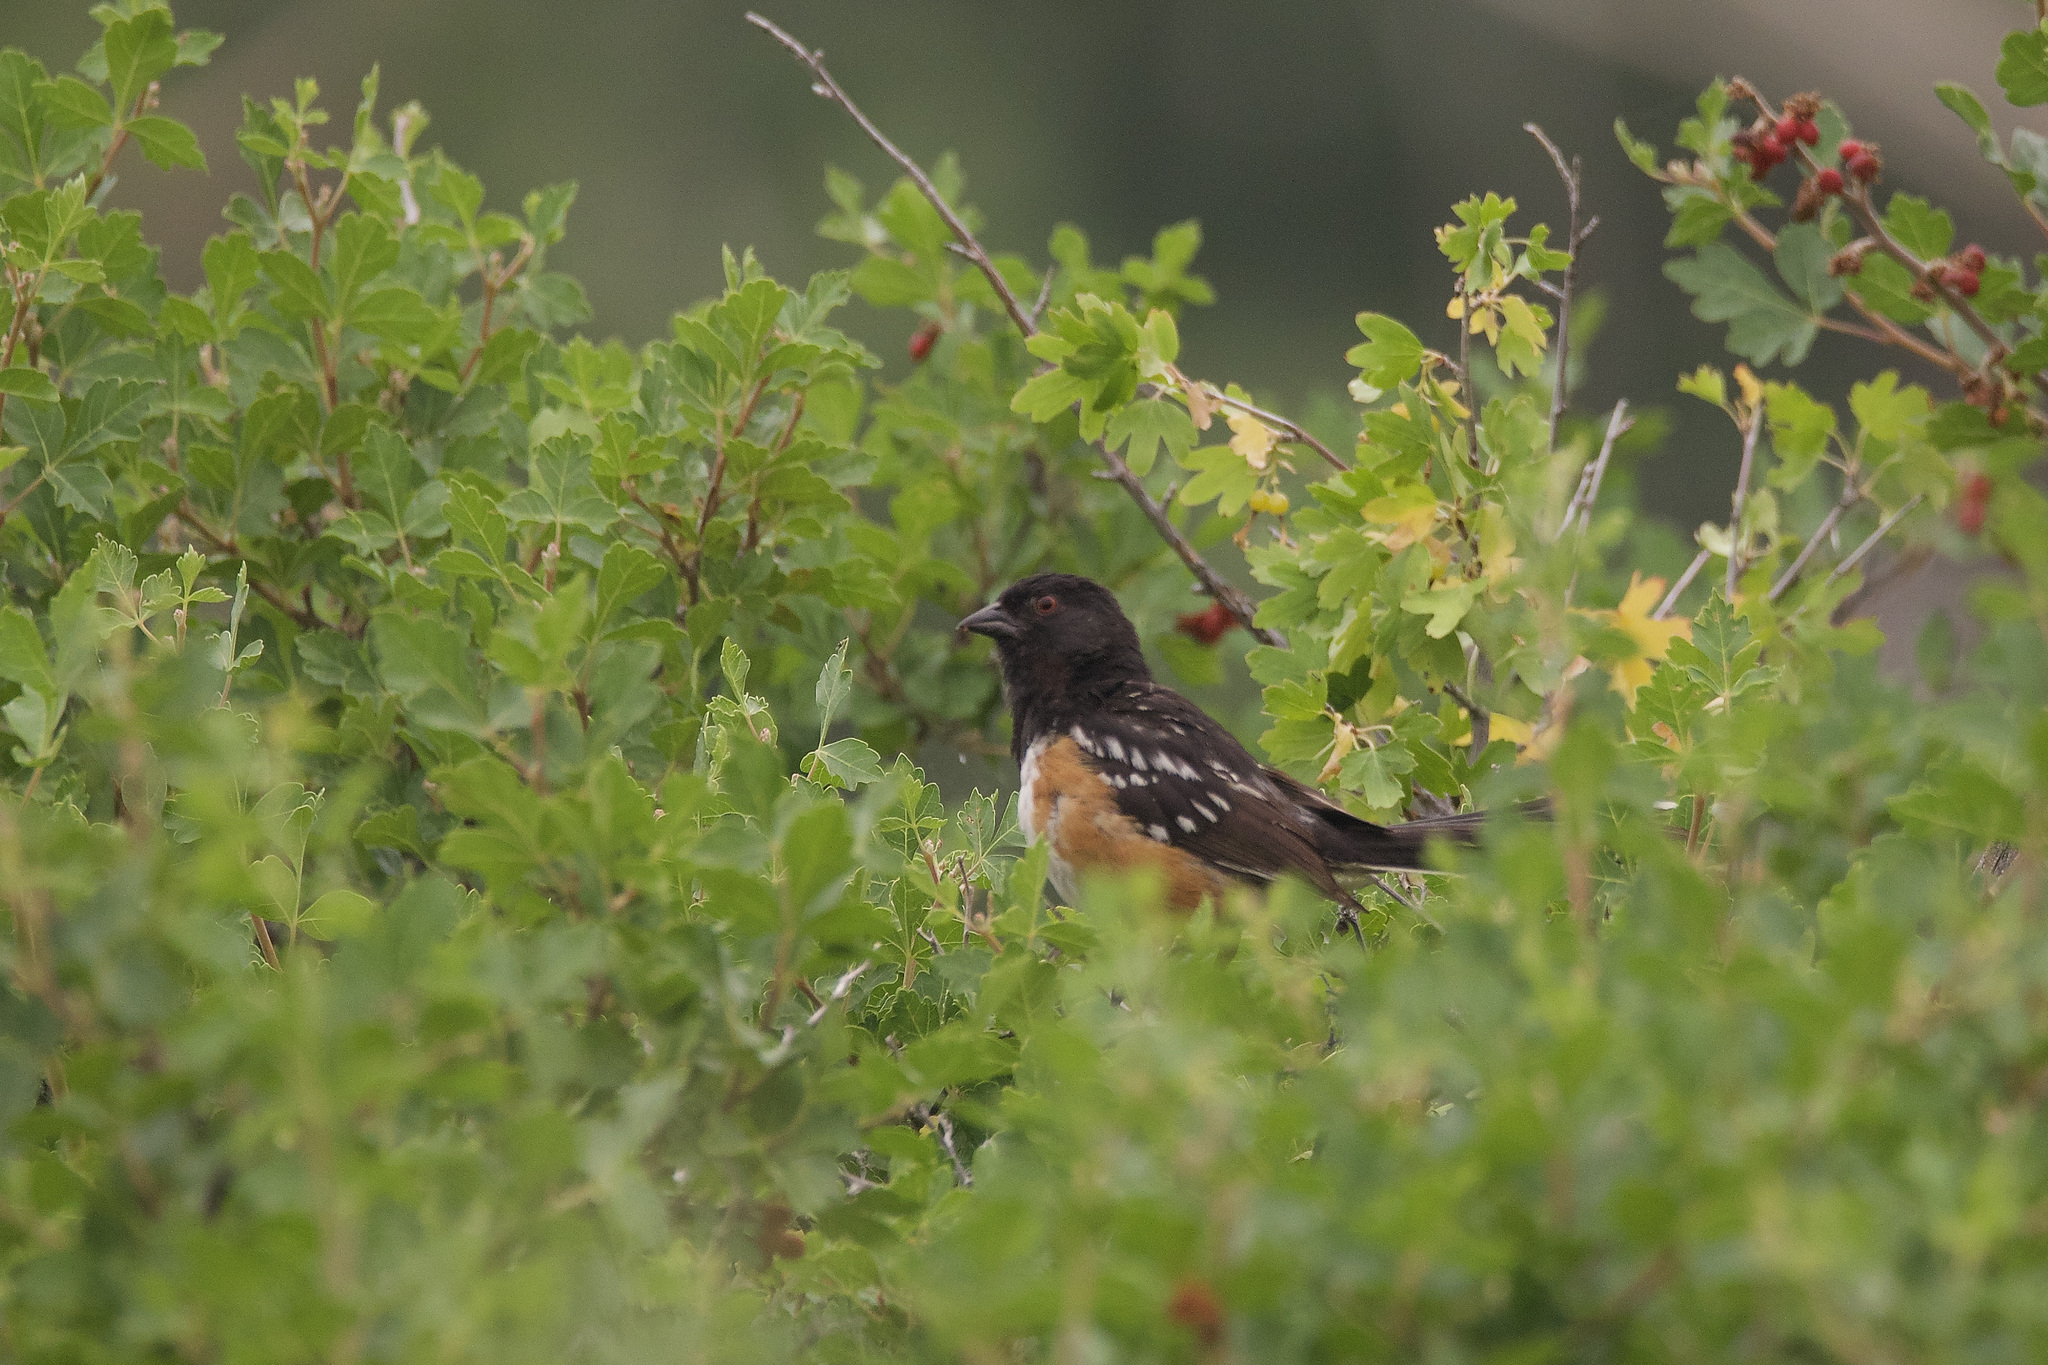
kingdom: Animalia
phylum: Chordata
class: Aves
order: Passeriformes
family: Passerellidae
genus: Pipilo
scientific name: Pipilo maculatus
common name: Spotted towhee
